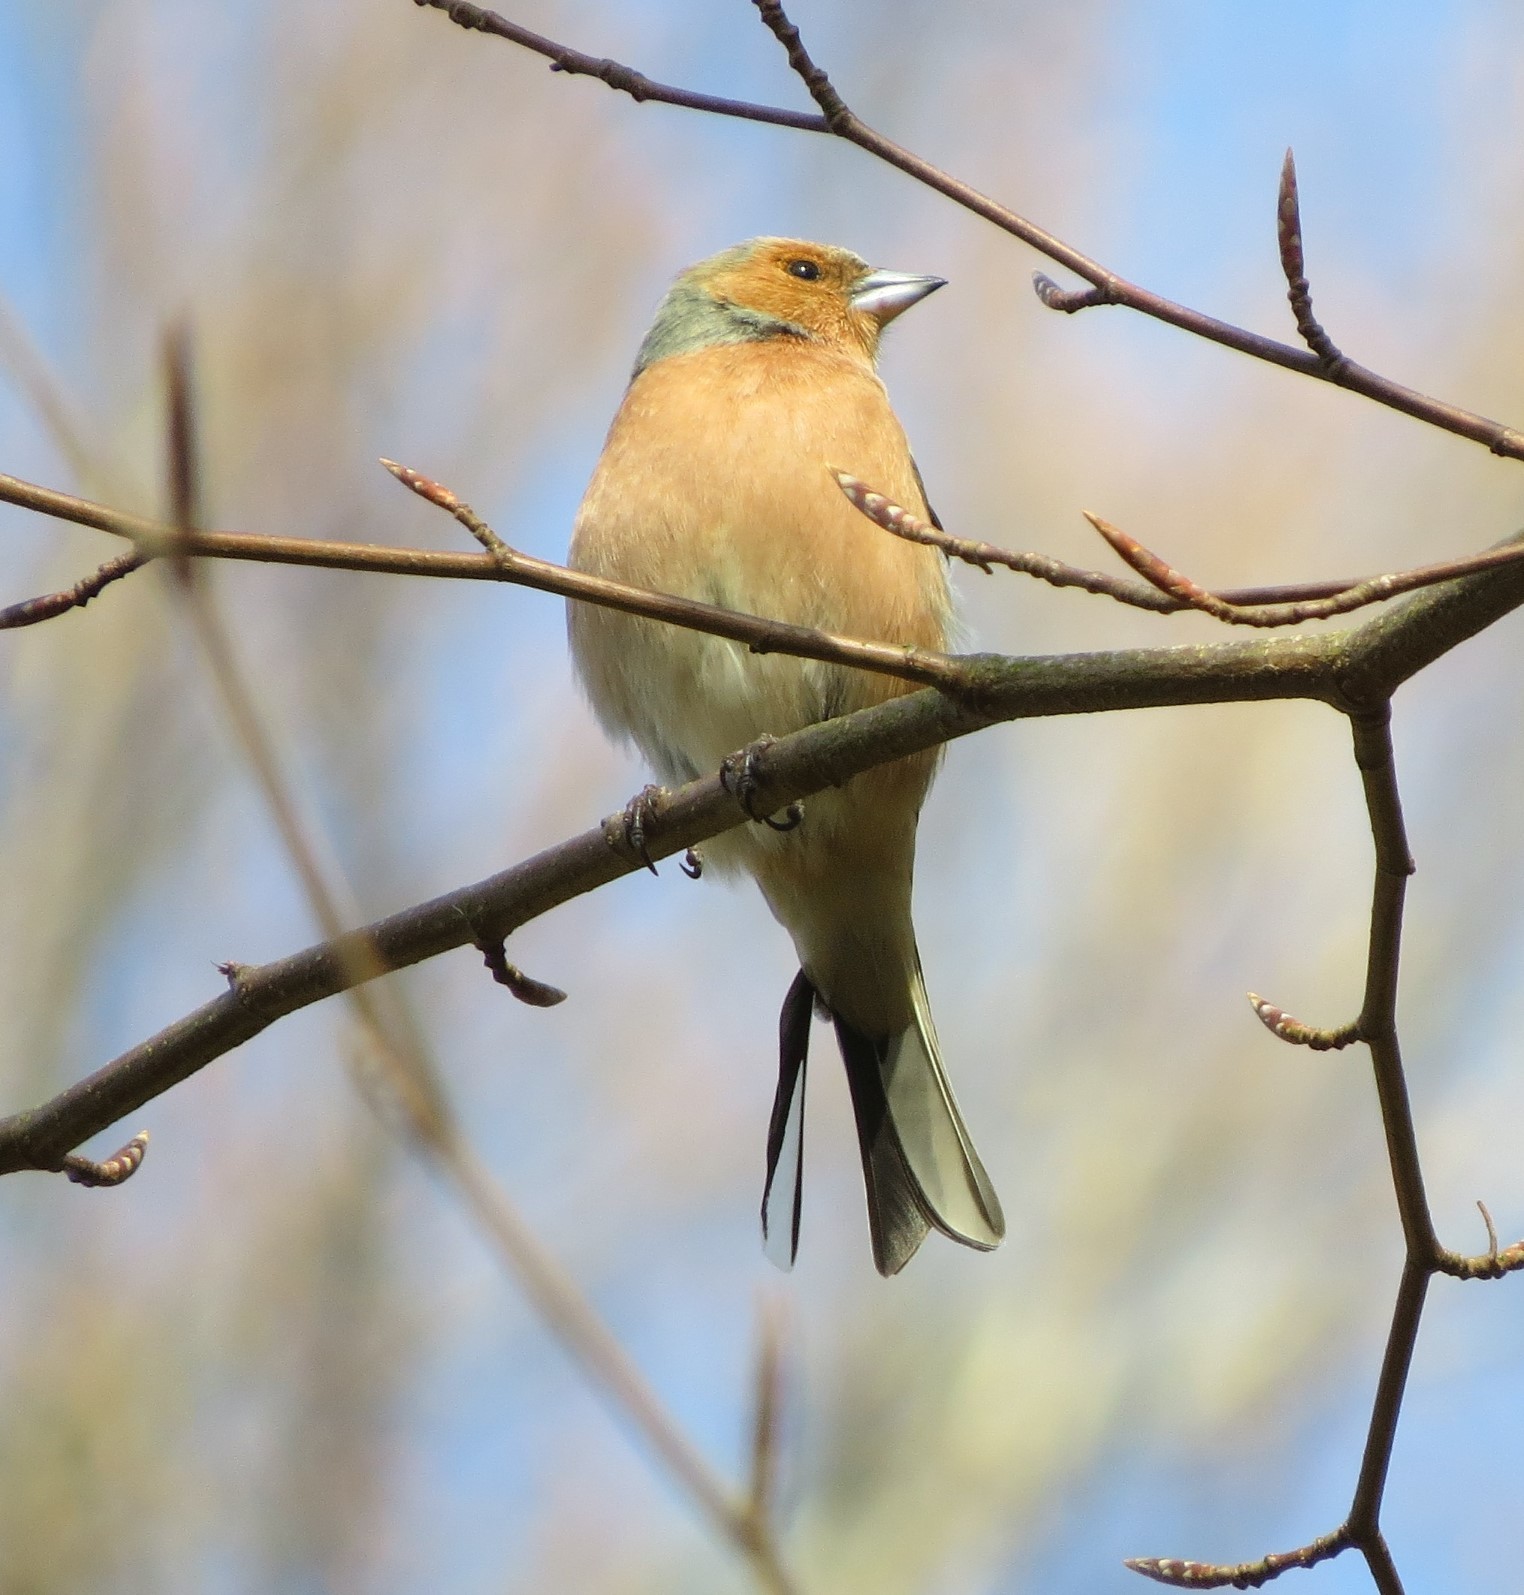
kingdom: Animalia
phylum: Chordata
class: Aves
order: Passeriformes
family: Fringillidae
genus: Fringilla
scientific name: Fringilla coelebs
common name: Common chaffinch
